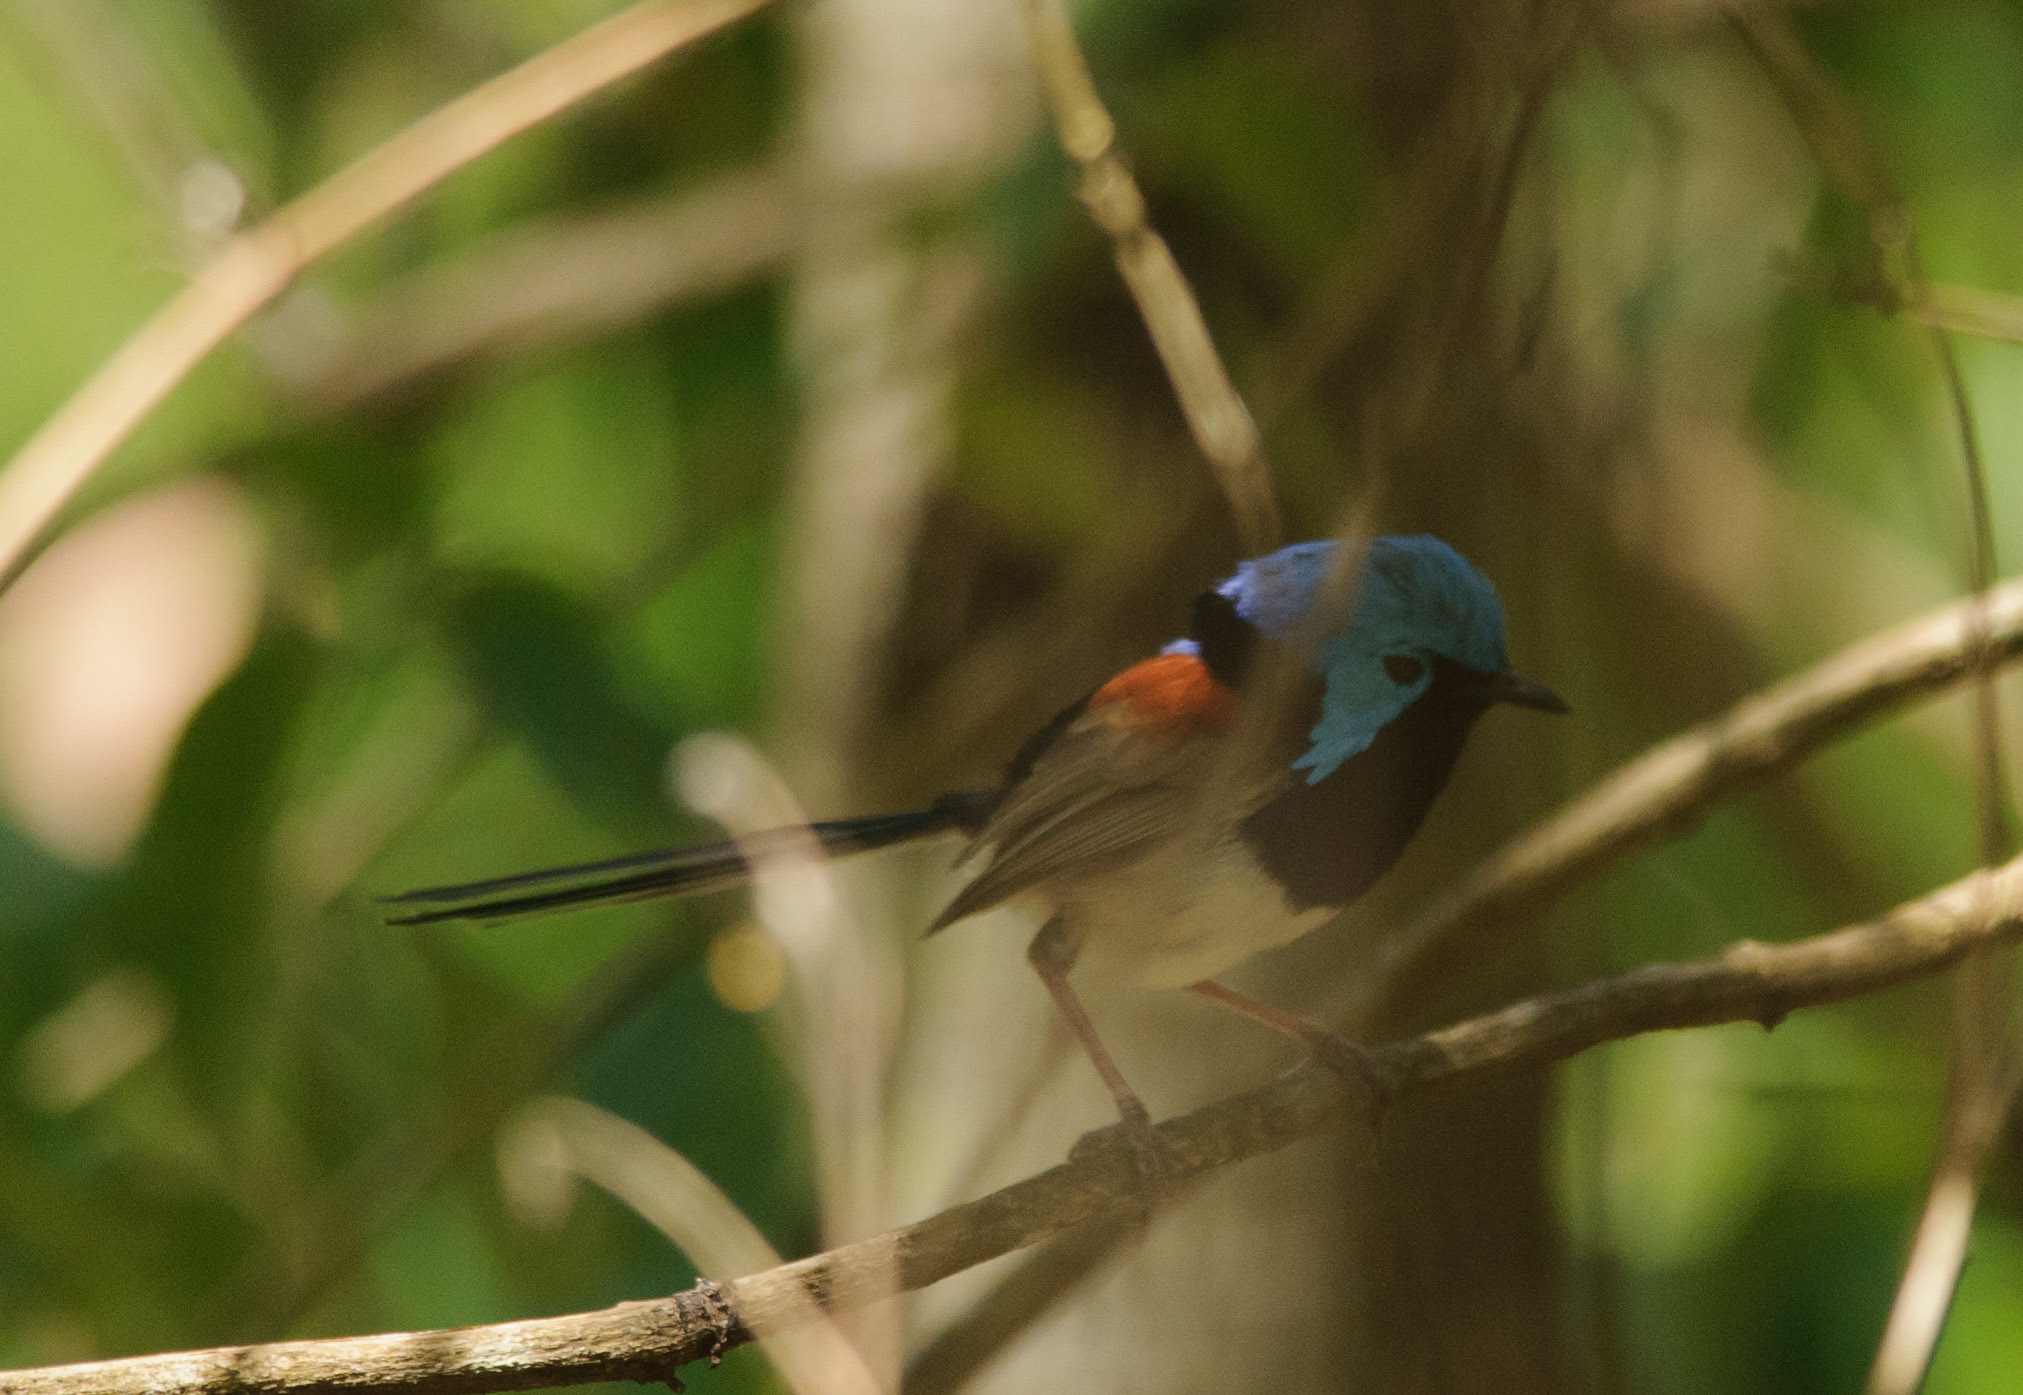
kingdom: Animalia
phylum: Chordata
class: Aves
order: Passeriformes
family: Maluridae
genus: Malurus
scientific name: Malurus lamberti
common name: Variegated fairywren
